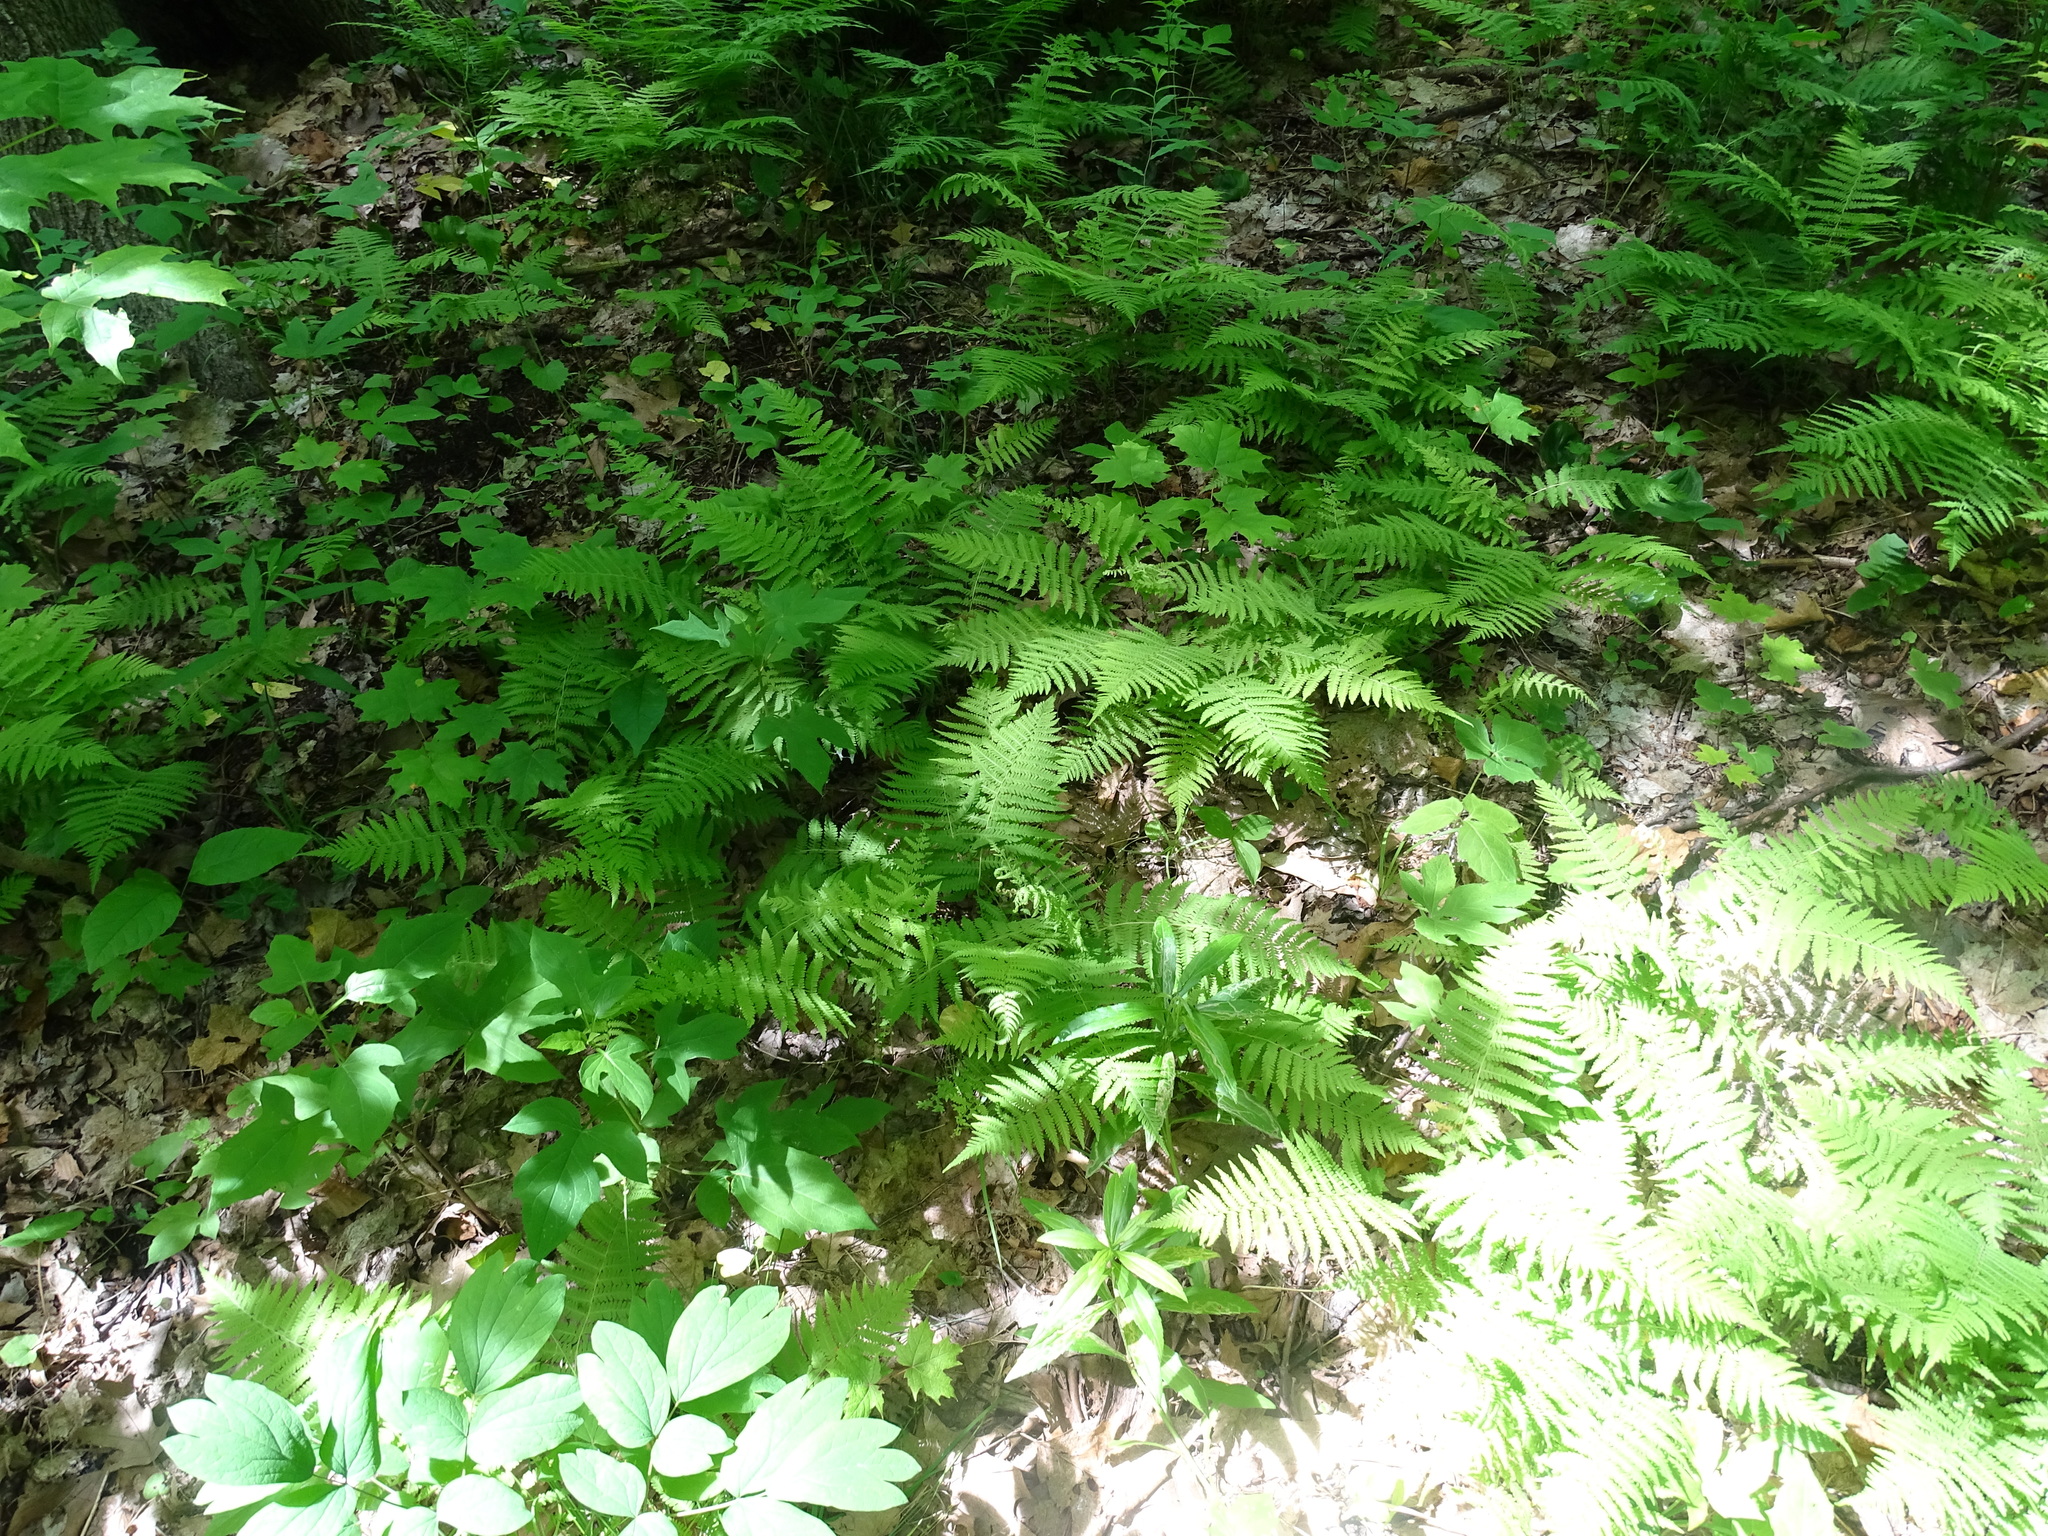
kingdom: Plantae
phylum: Tracheophyta
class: Polypodiopsida
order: Polypodiales
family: Thelypteridaceae
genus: Amauropelta
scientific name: Amauropelta noveboracensis
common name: New york fern
